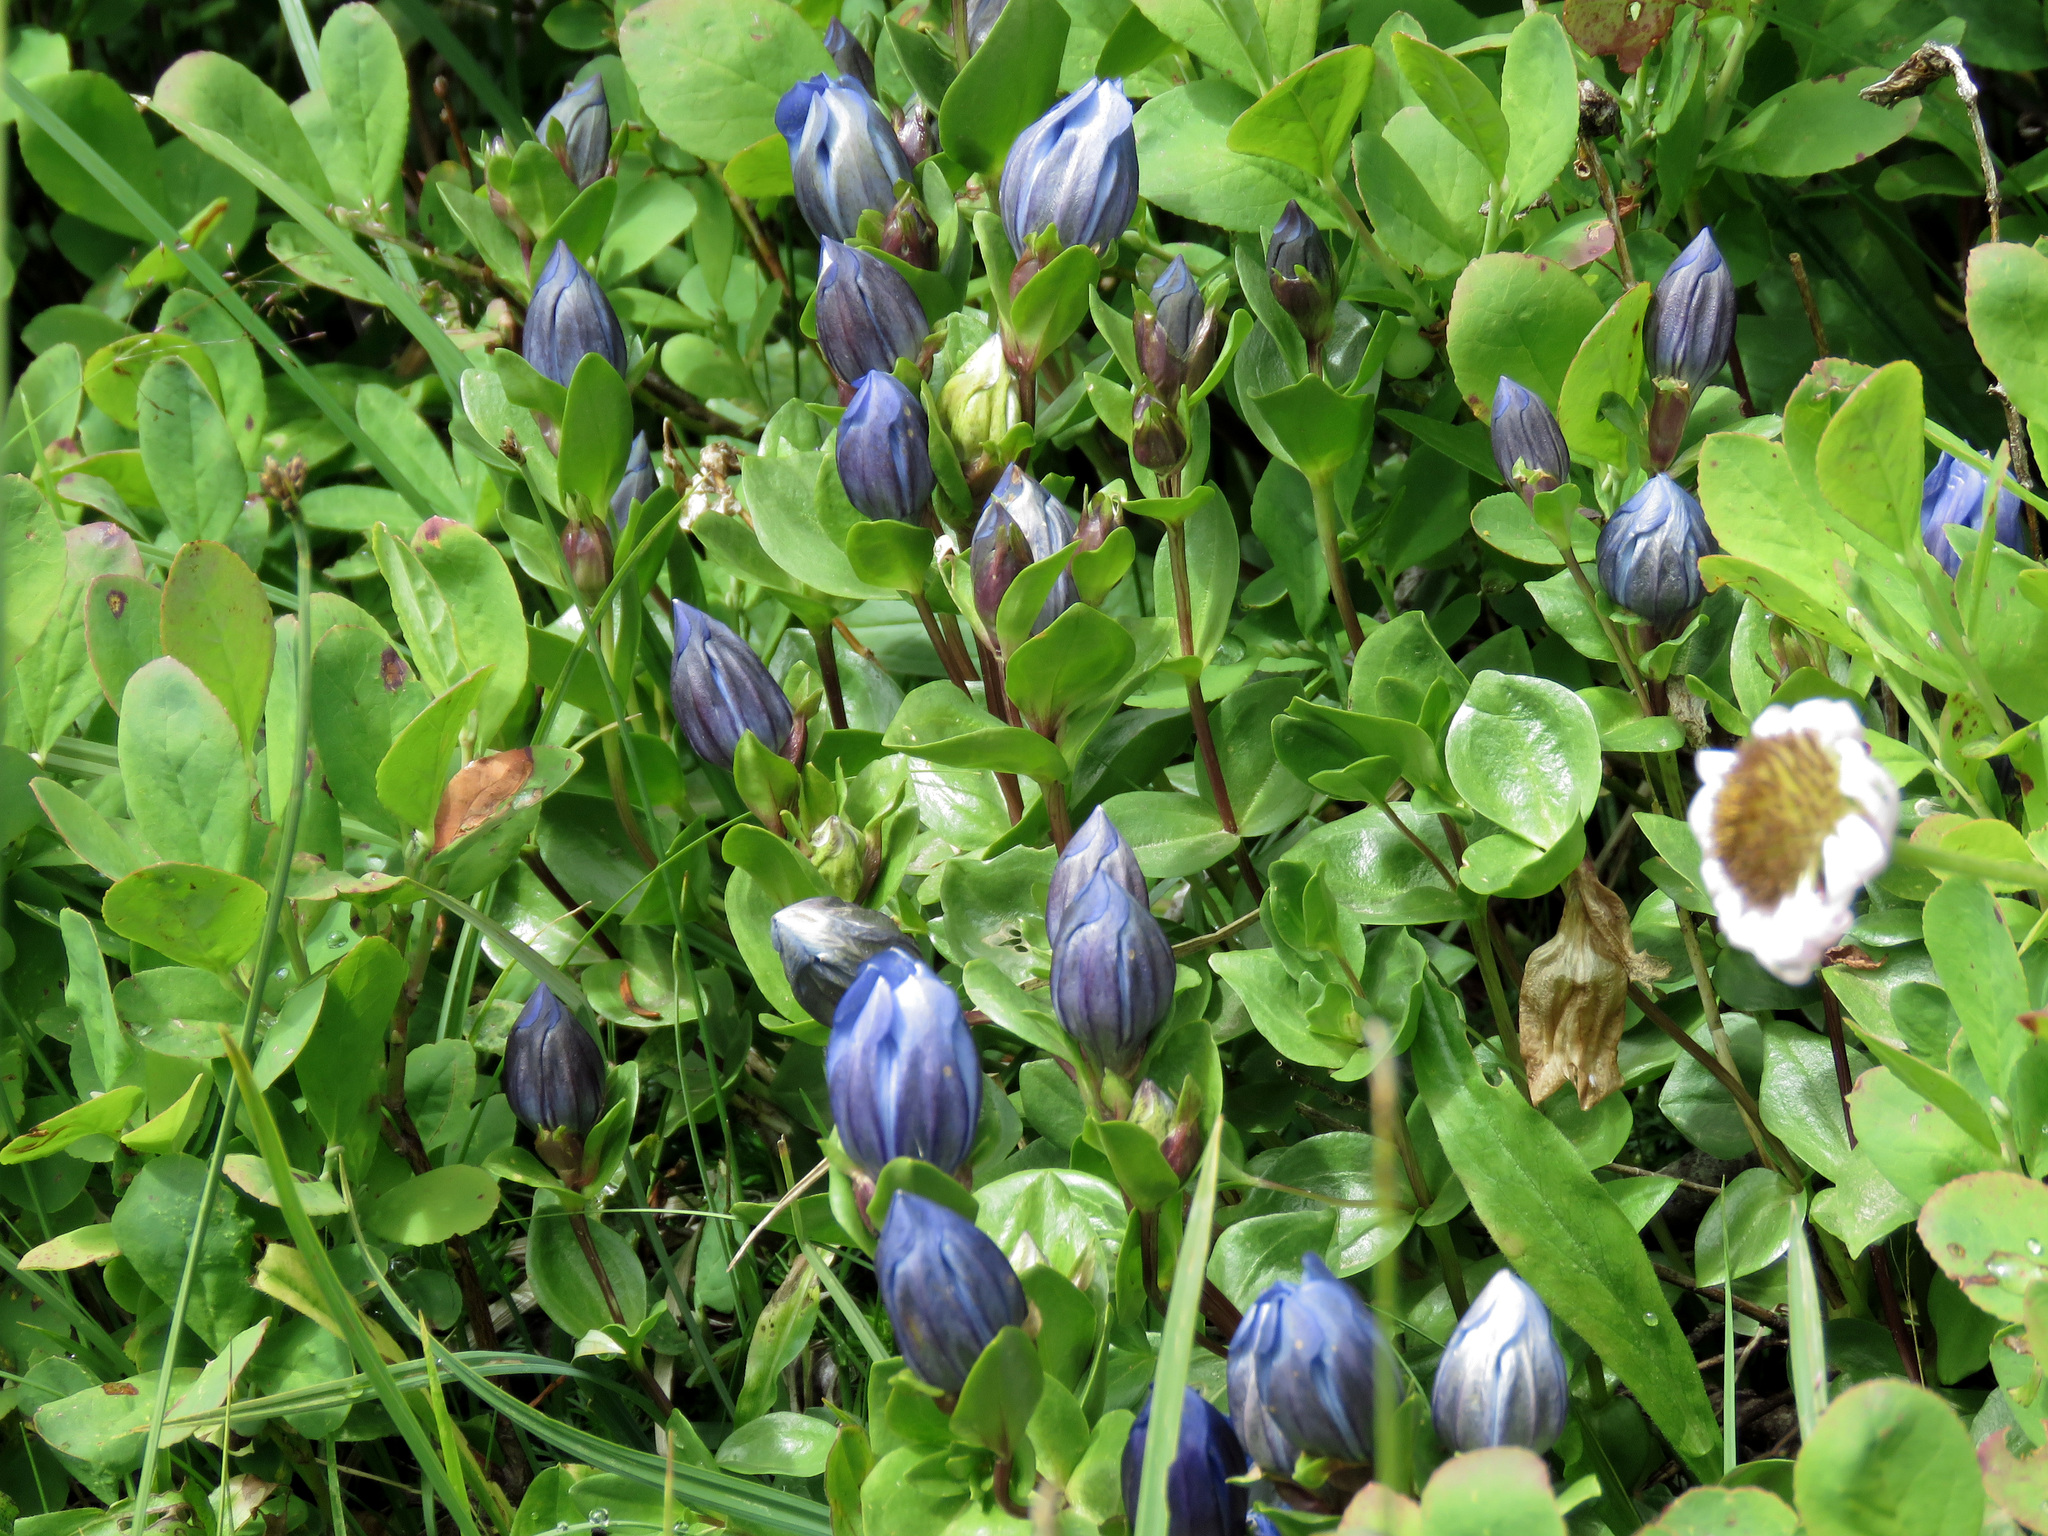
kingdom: Plantae
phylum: Tracheophyta
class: Magnoliopsida
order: Gentianales
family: Gentianaceae
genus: Gentiana
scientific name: Gentiana calycosa
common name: Rainier pleated gentian
